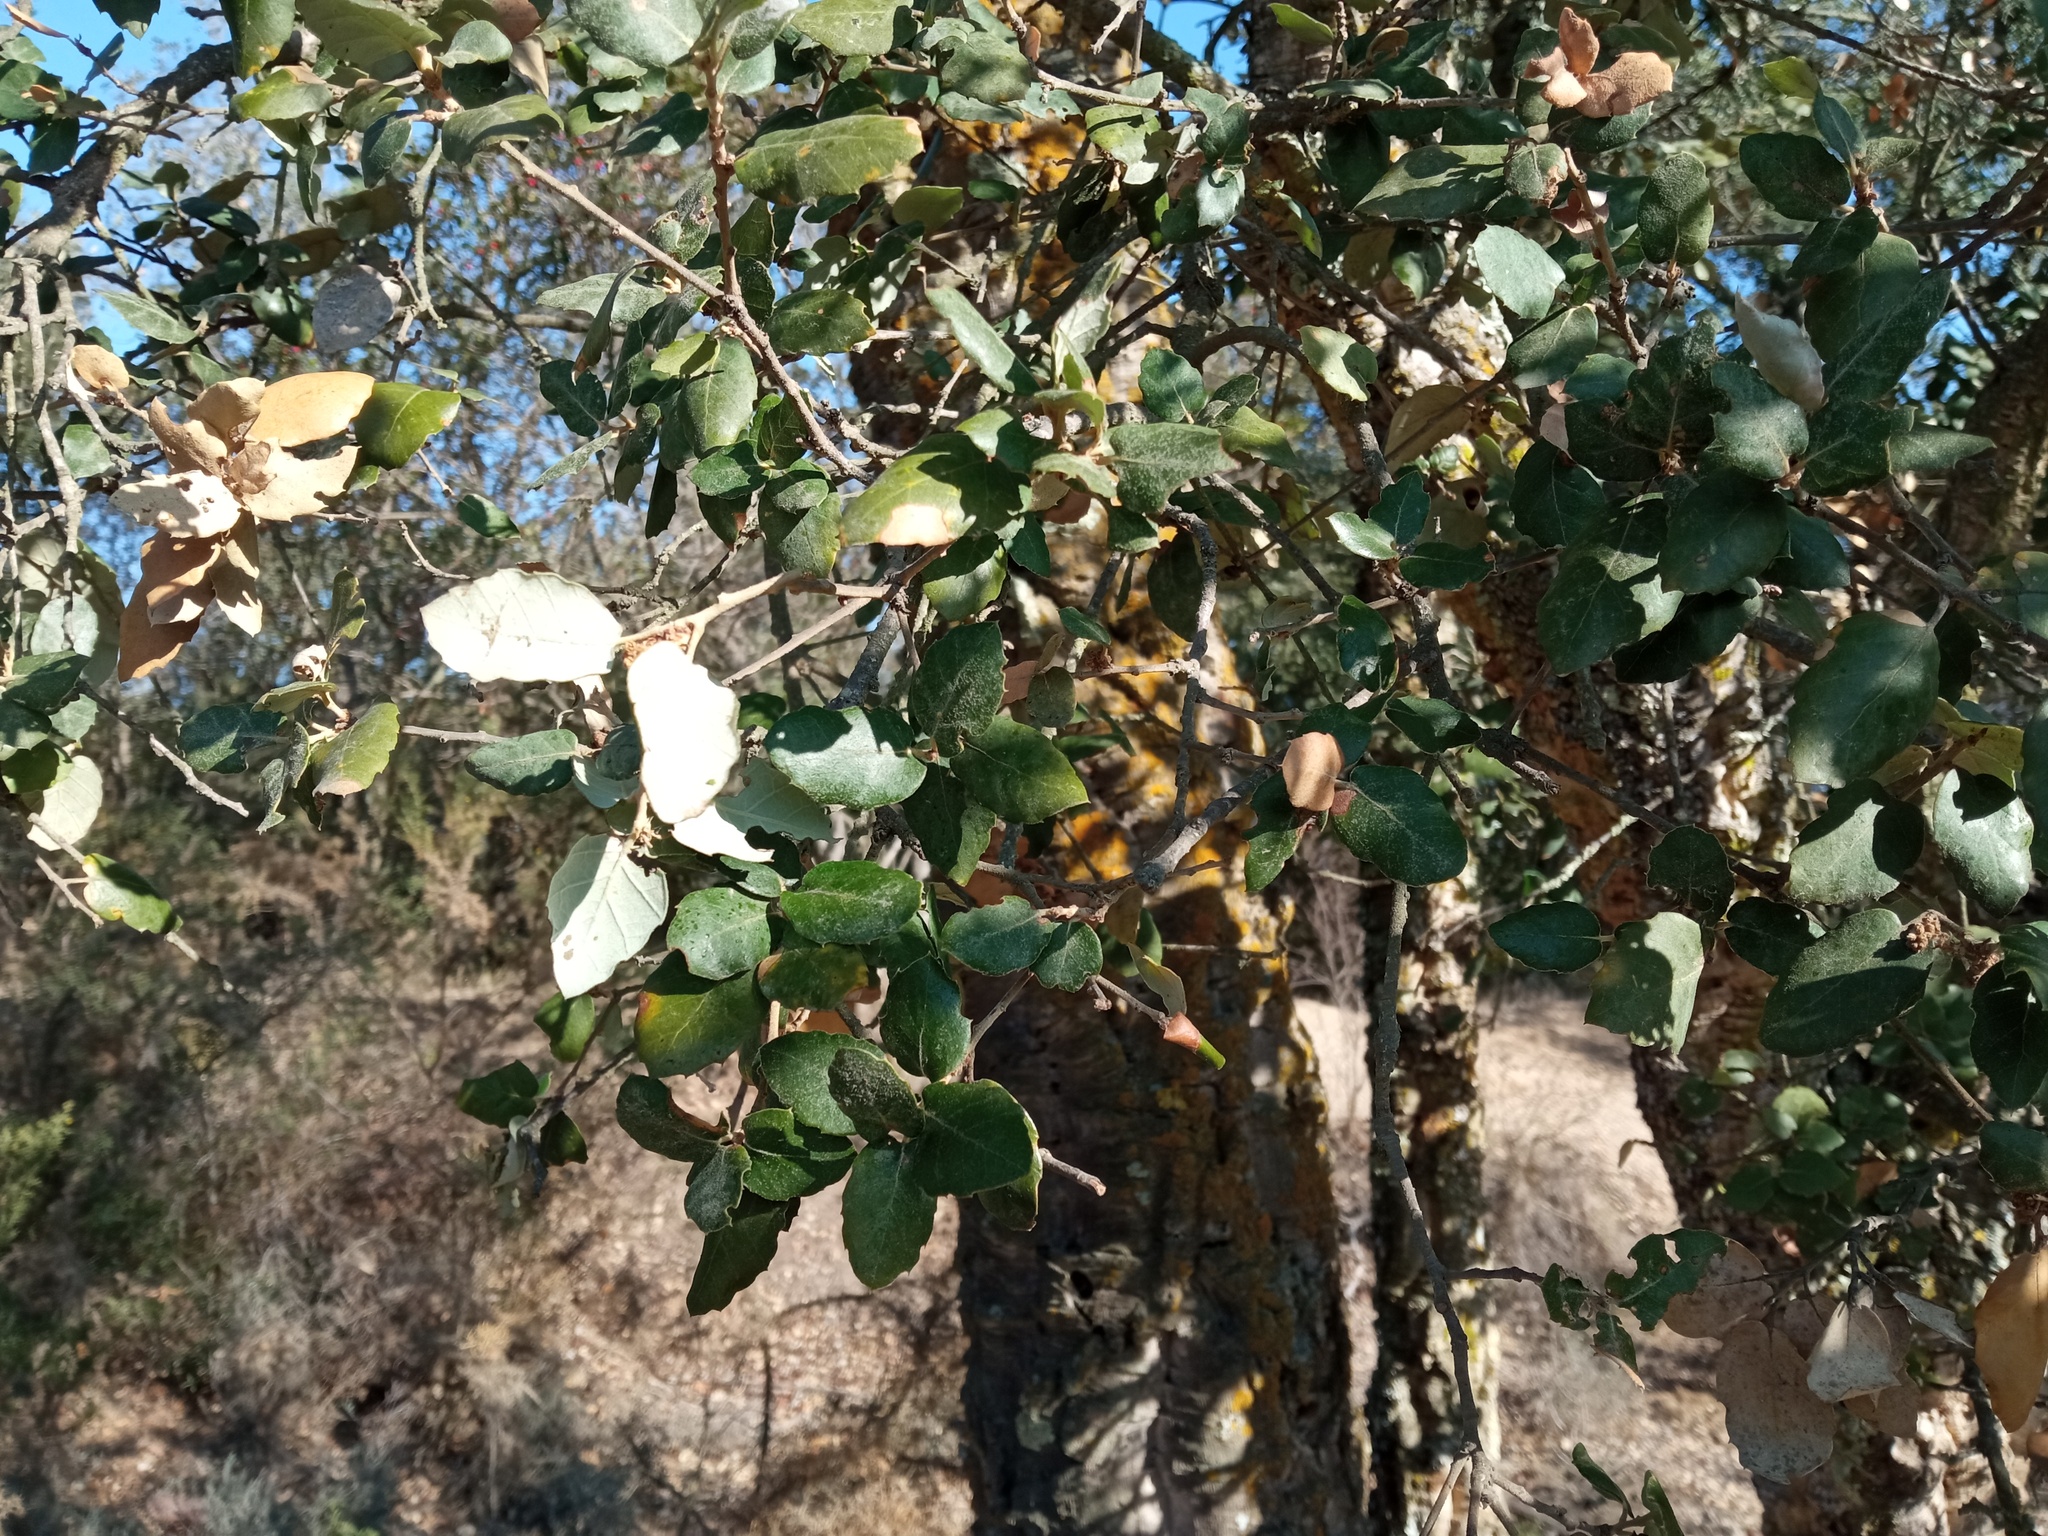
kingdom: Plantae
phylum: Tracheophyta
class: Magnoliopsida
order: Fagales
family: Fagaceae
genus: Quercus
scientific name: Quercus suber
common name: Cork oak
